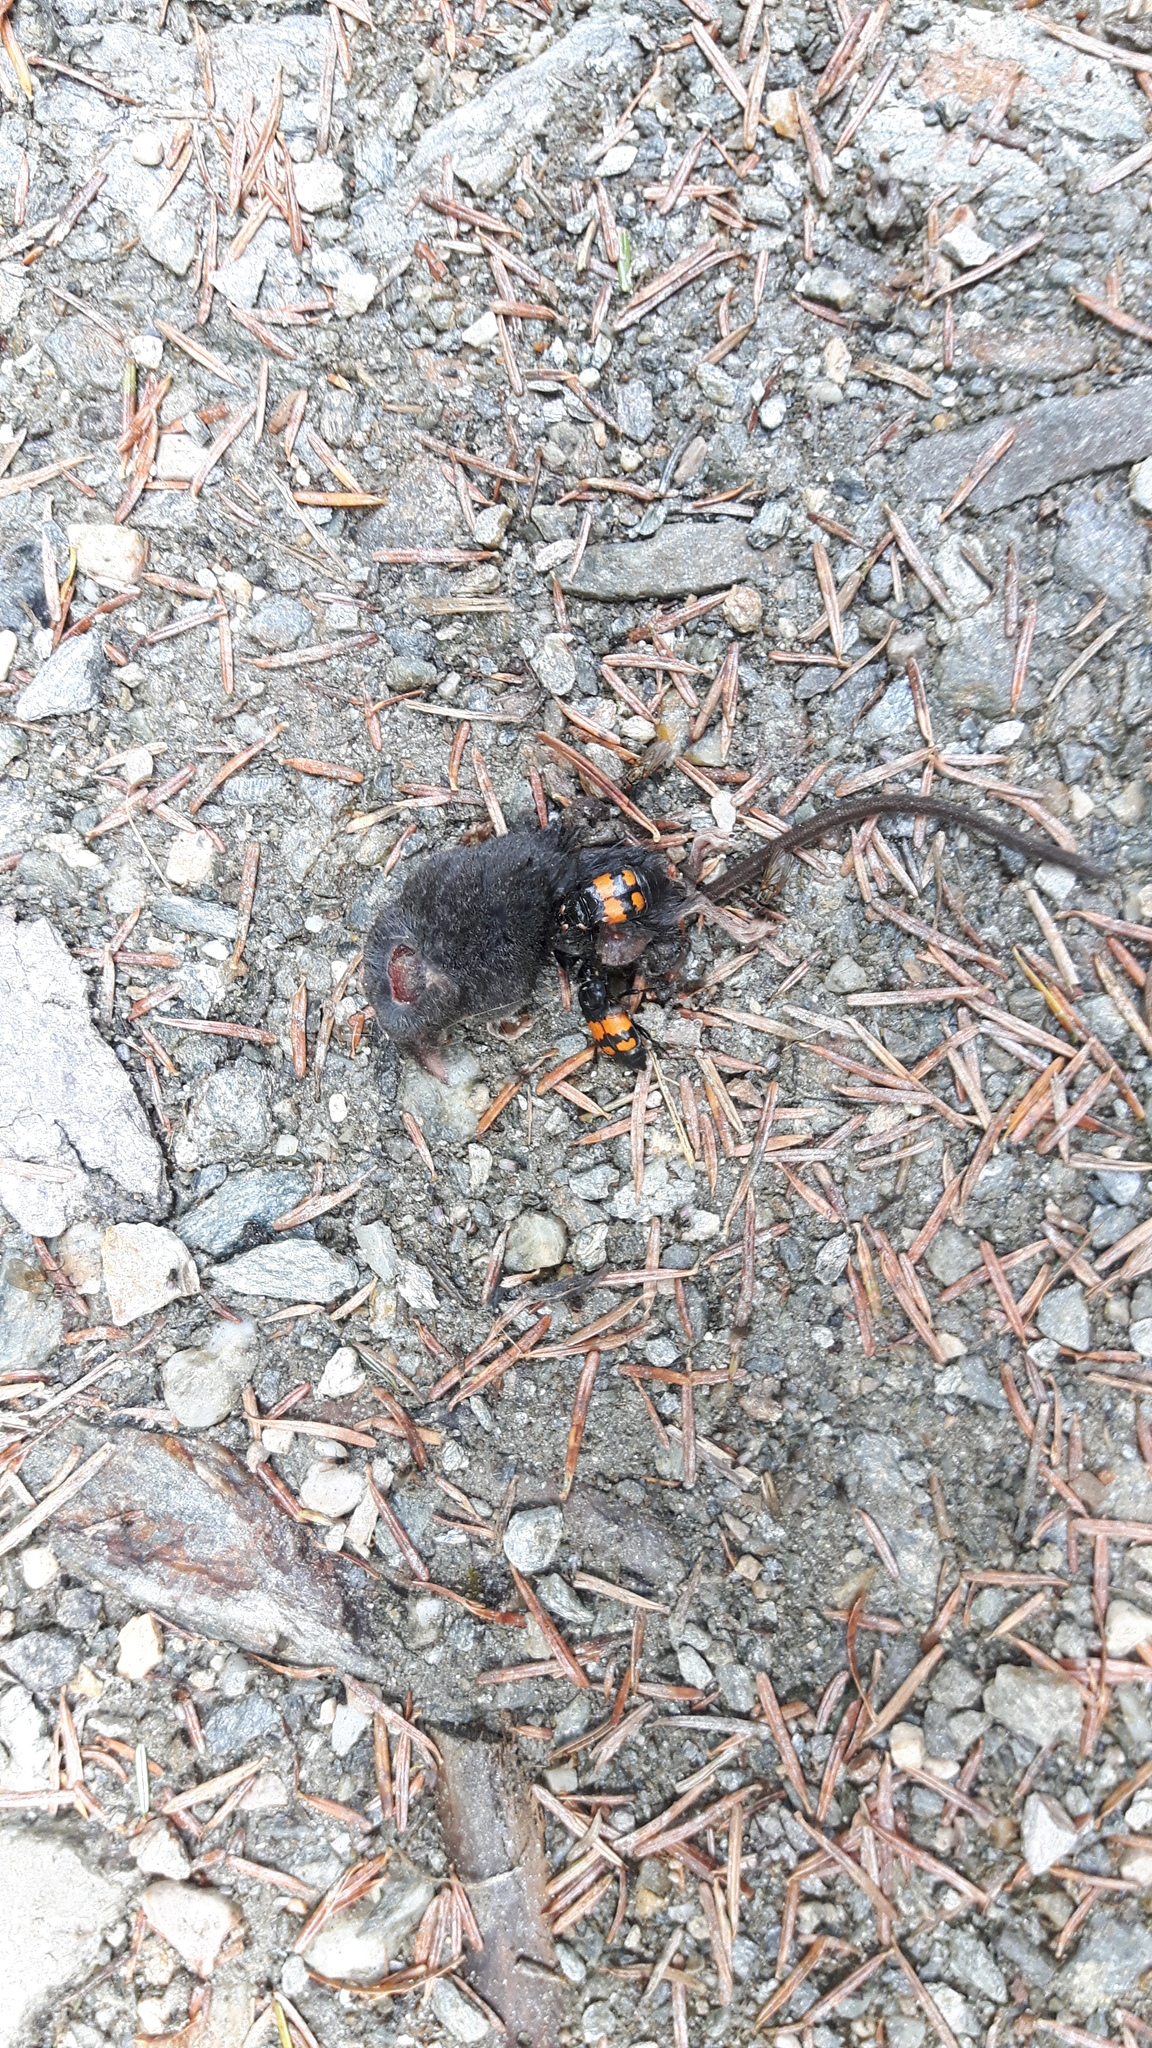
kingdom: Animalia
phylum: Arthropoda
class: Insecta
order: Coleoptera
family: Staphylinidae
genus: Nicrophorus
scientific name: Nicrophorus vespilloides
